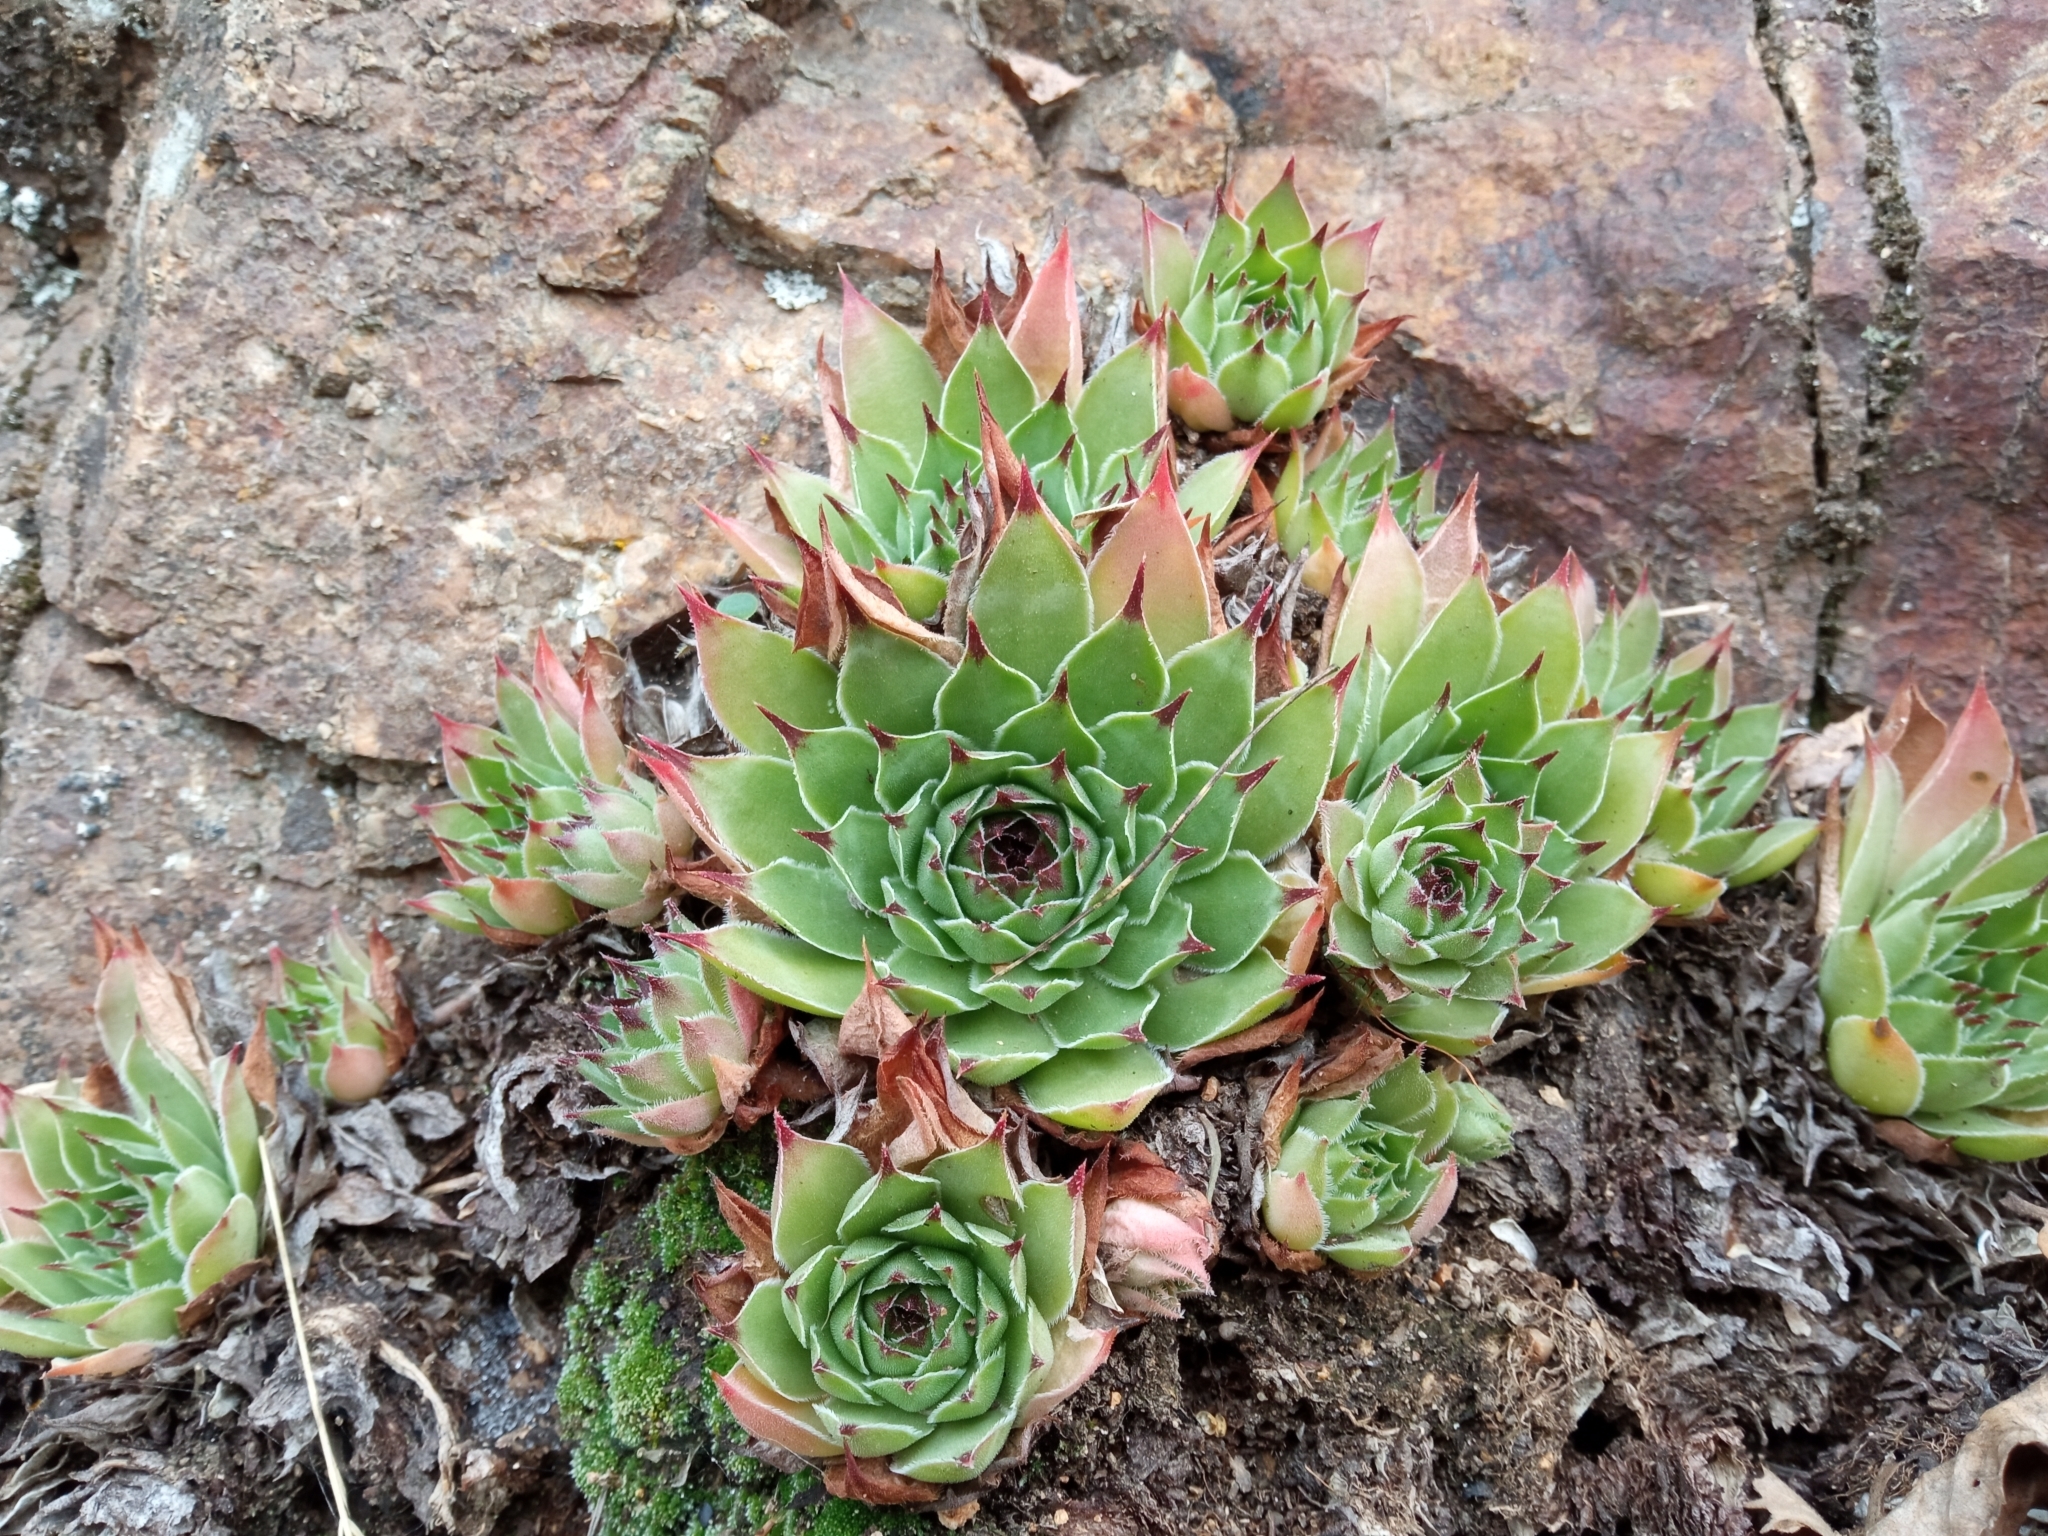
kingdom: Plantae
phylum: Tracheophyta
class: Magnoliopsida
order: Saxifragales
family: Crassulaceae
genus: Sempervivum
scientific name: Sempervivum tectorum
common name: House-leek
